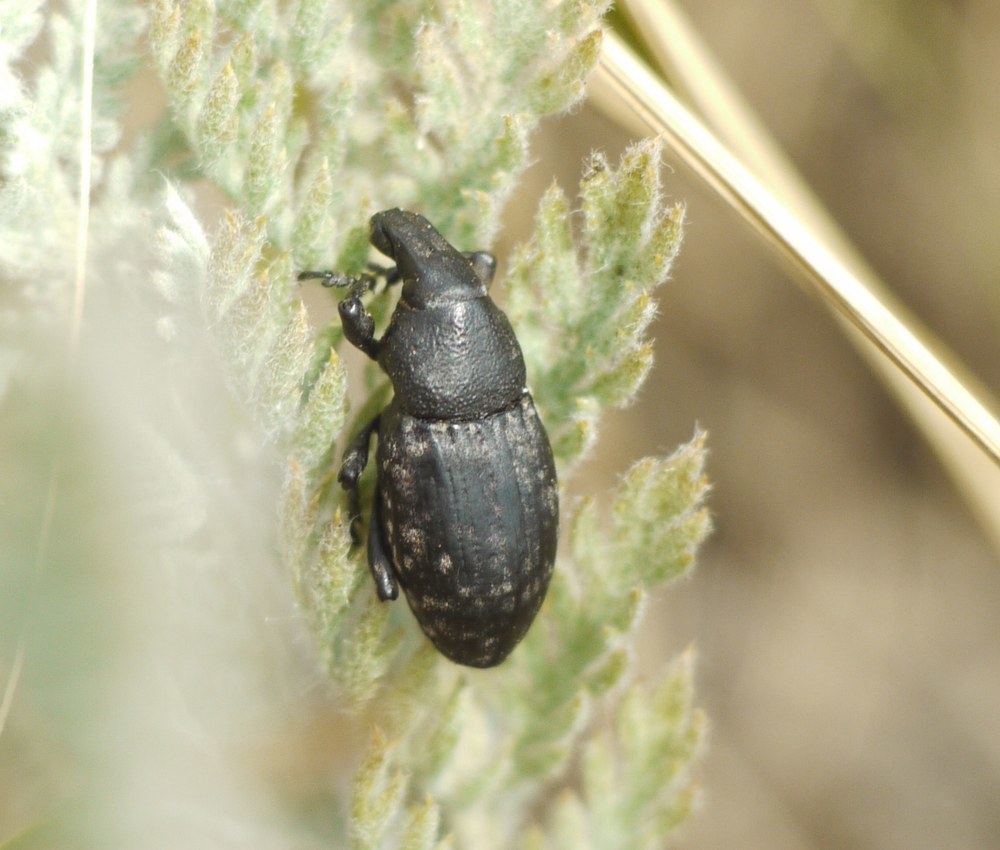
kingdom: Animalia
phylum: Arthropoda
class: Insecta
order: Coleoptera
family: Curculionidae
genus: Leucophyes
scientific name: Leucophyes pedestris
